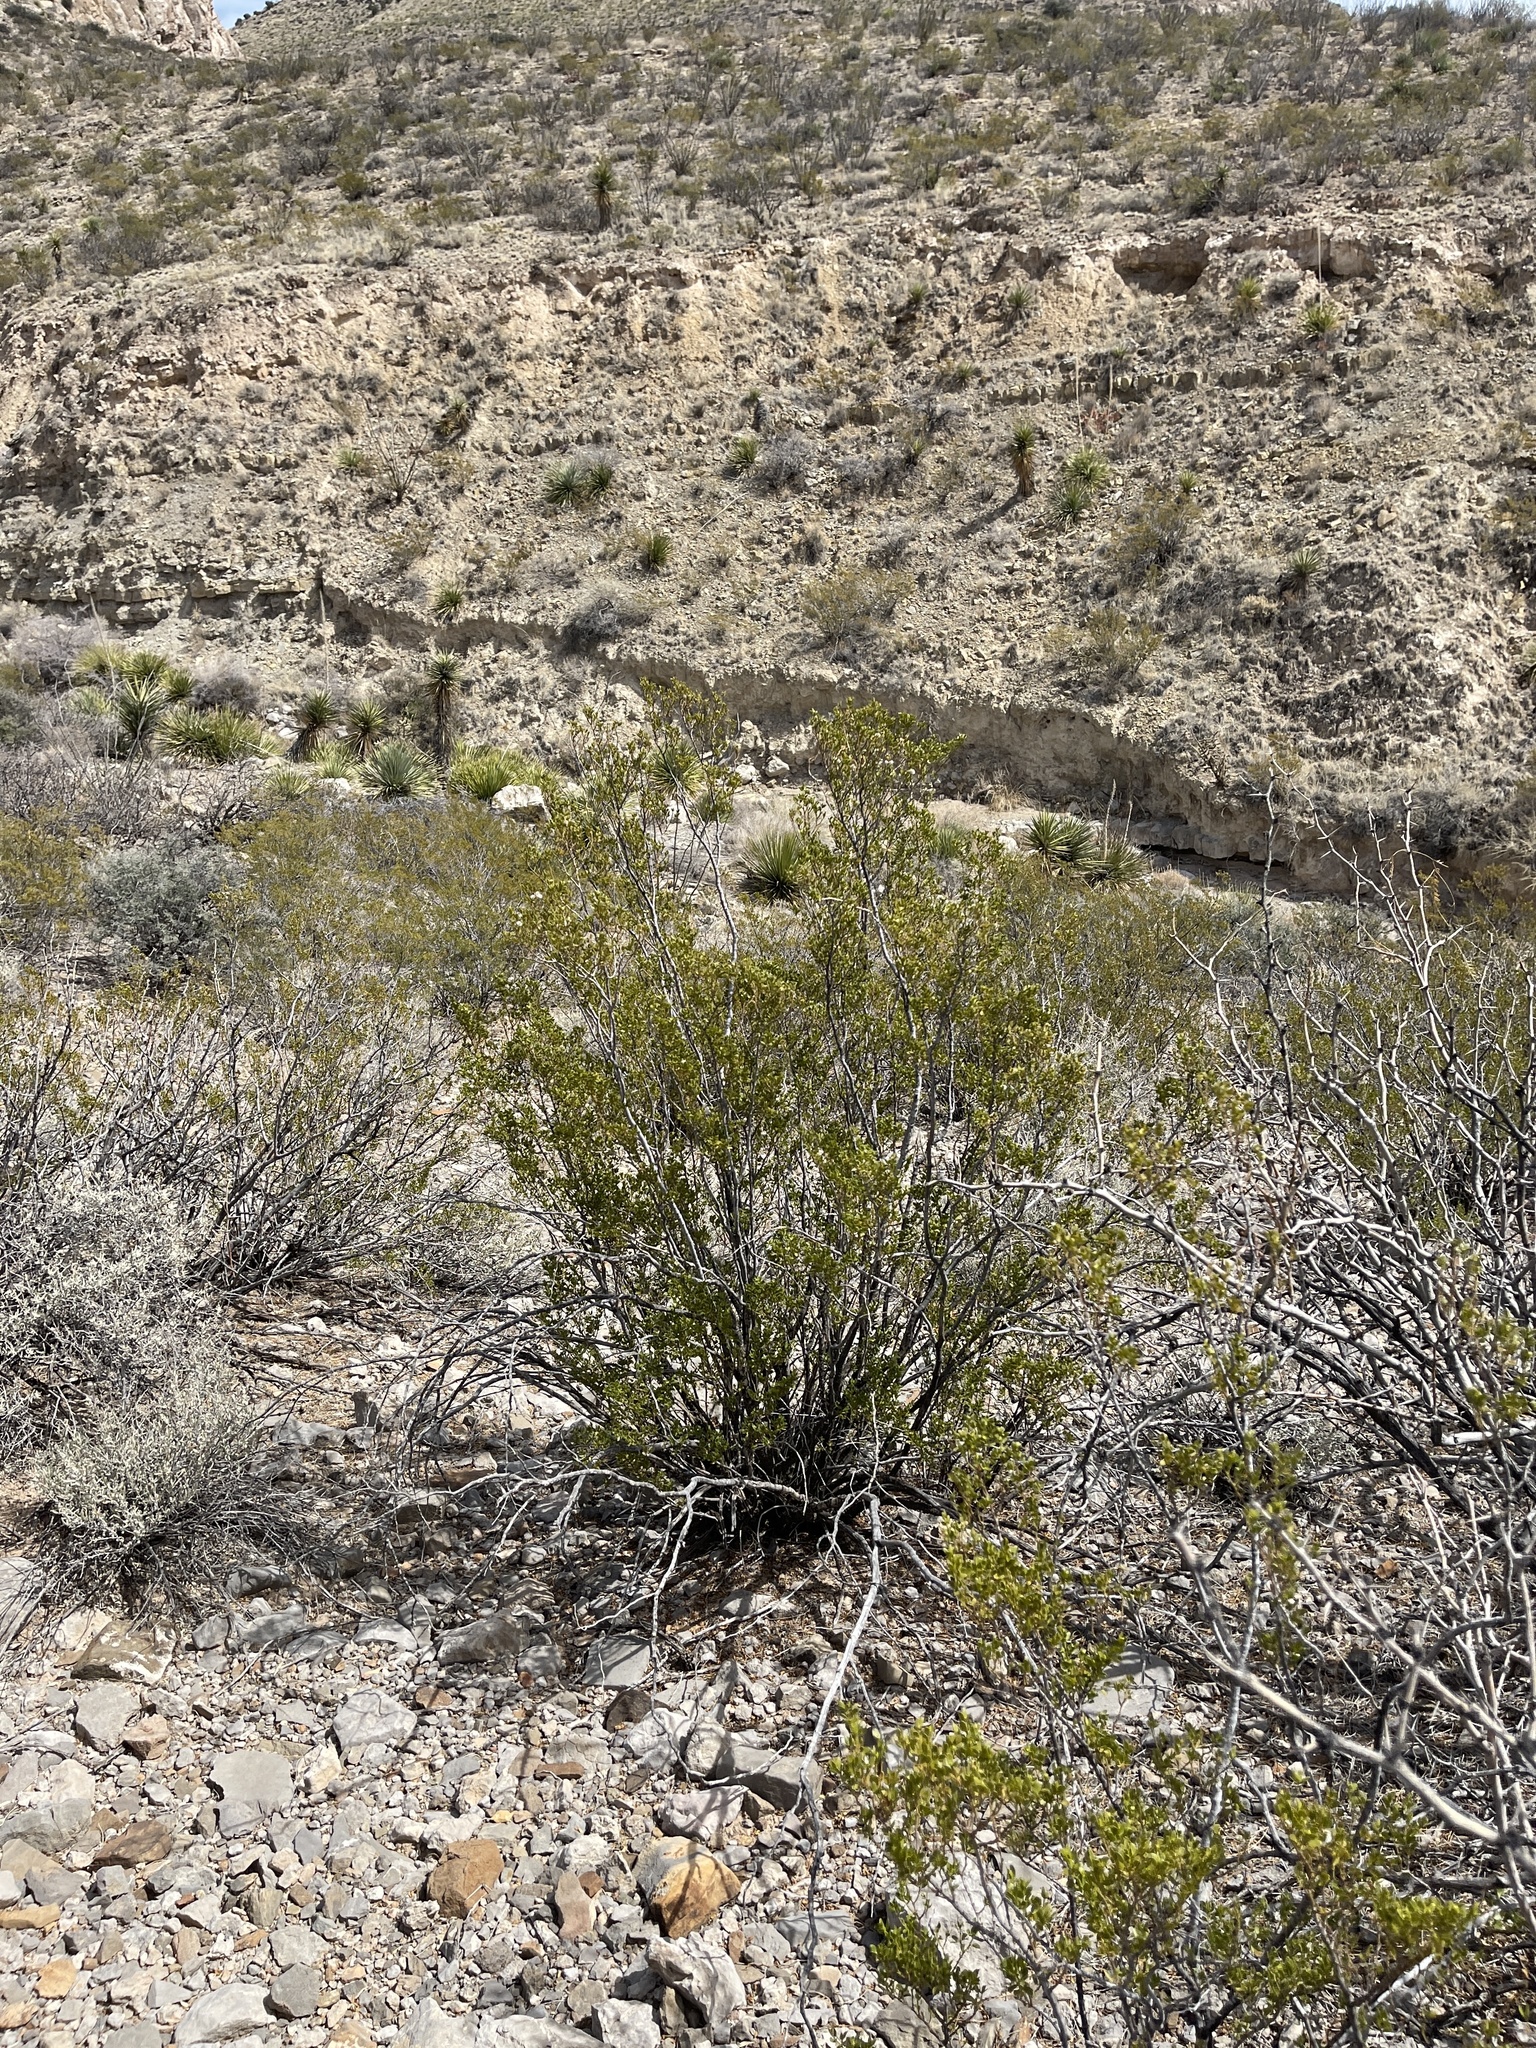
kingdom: Plantae
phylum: Tracheophyta
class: Magnoliopsida
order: Zygophyllales
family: Zygophyllaceae
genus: Larrea
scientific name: Larrea tridentata
